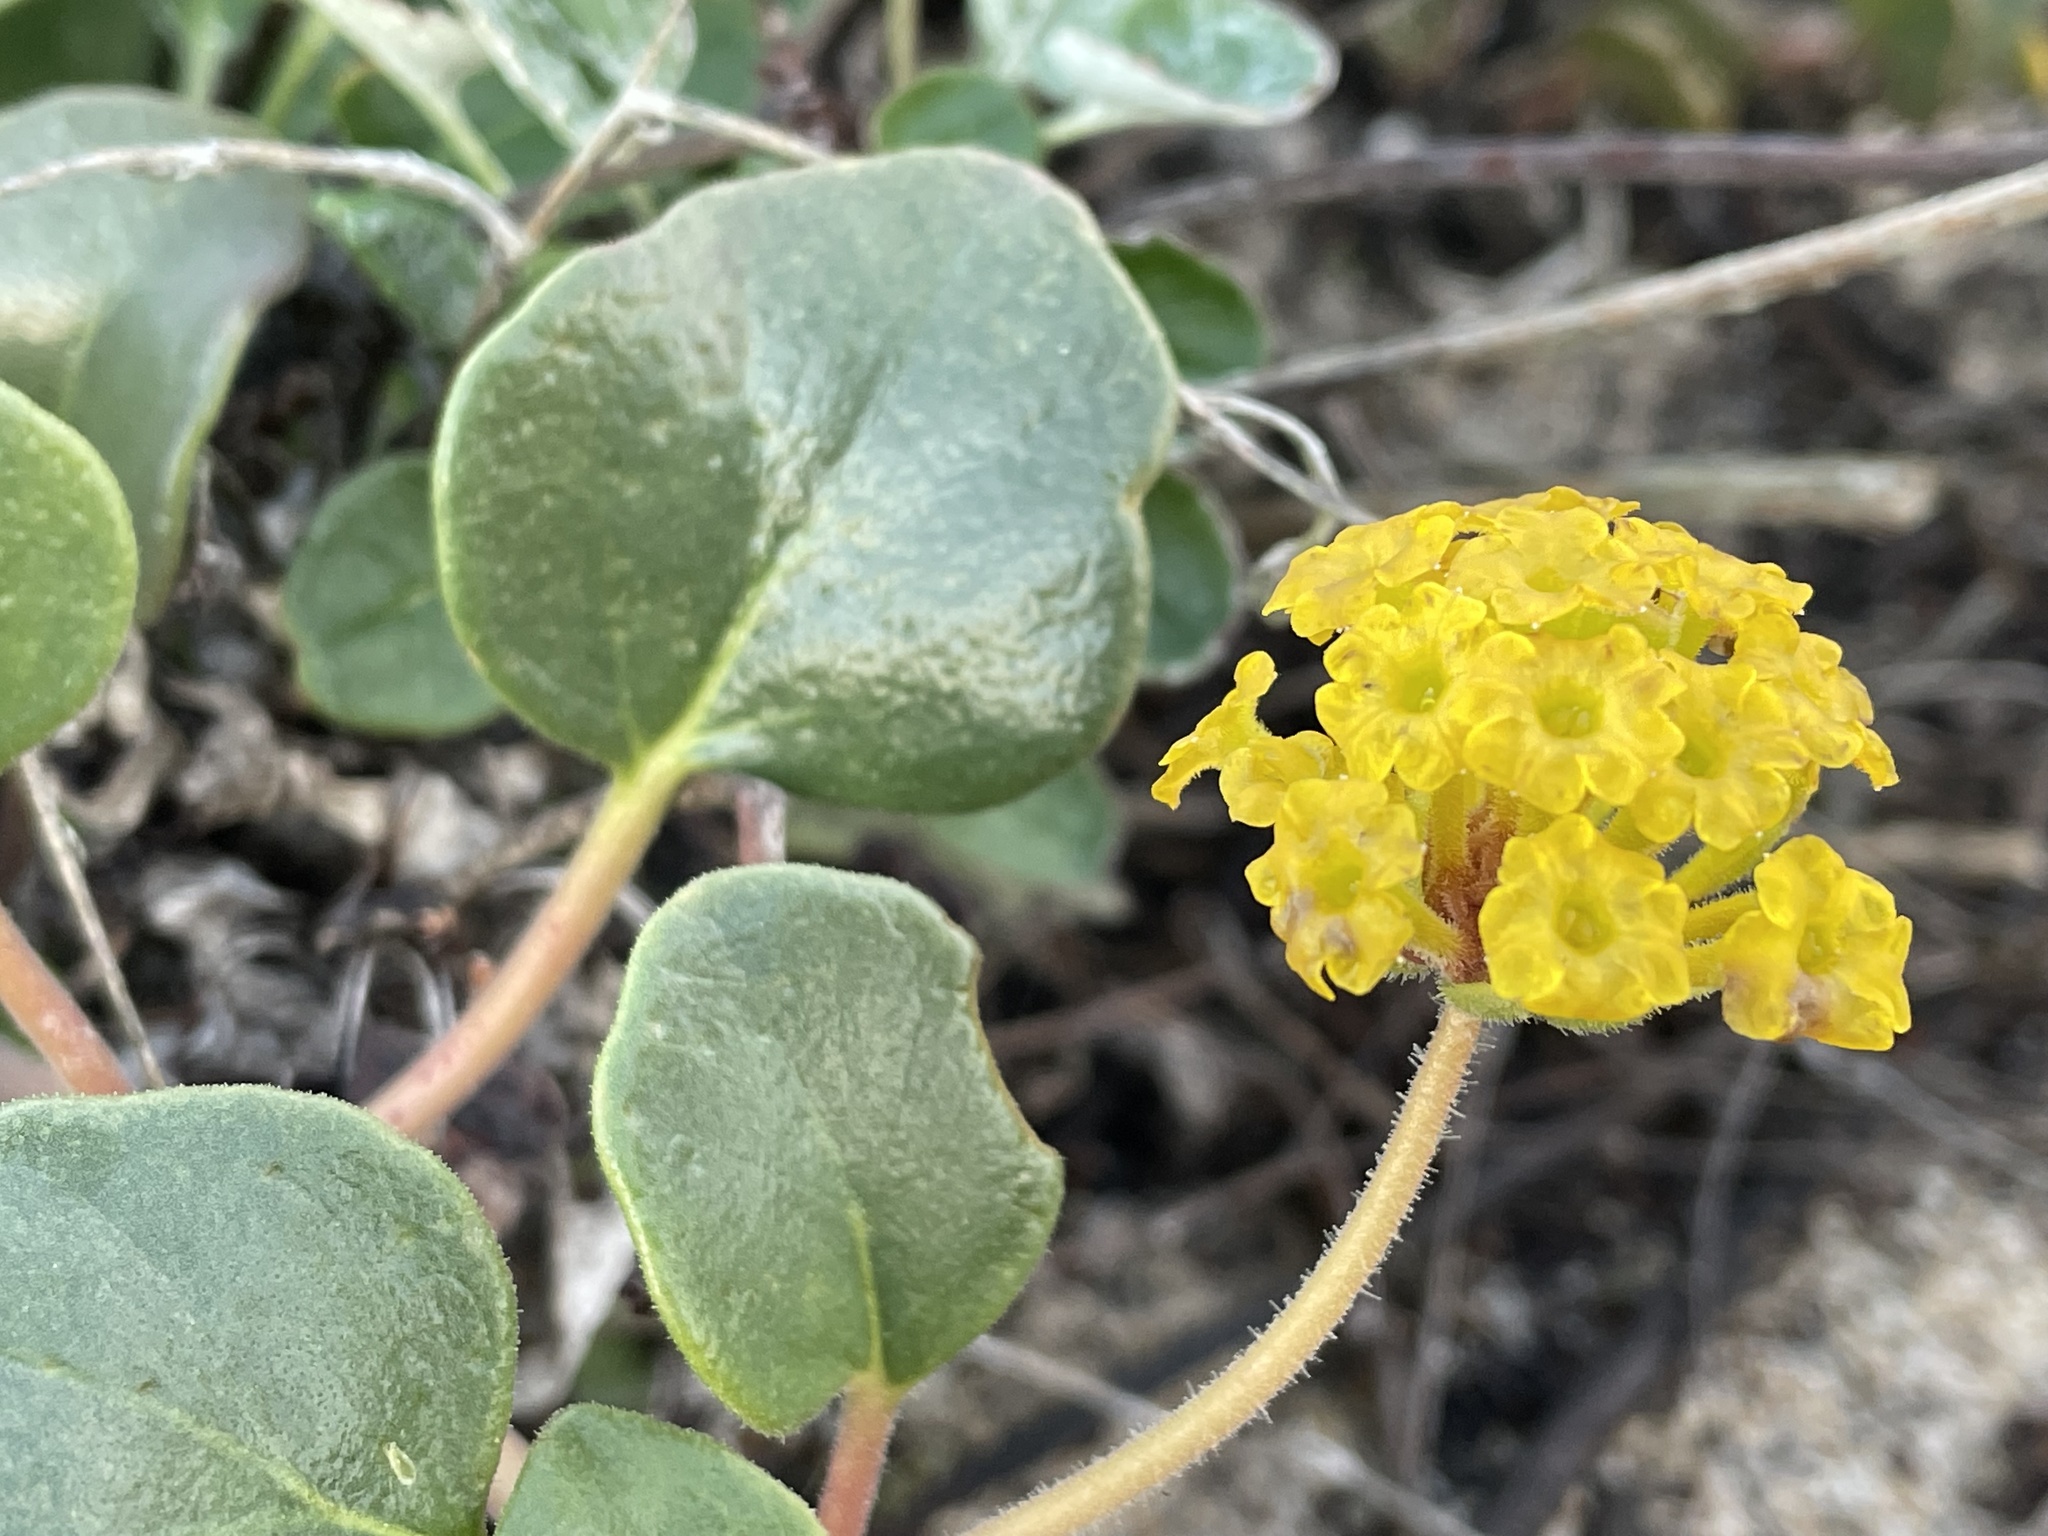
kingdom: Plantae
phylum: Tracheophyta
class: Magnoliopsida
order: Caryophyllales
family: Nyctaginaceae
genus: Abronia
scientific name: Abronia latifolia
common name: Yellow sand-verbena
